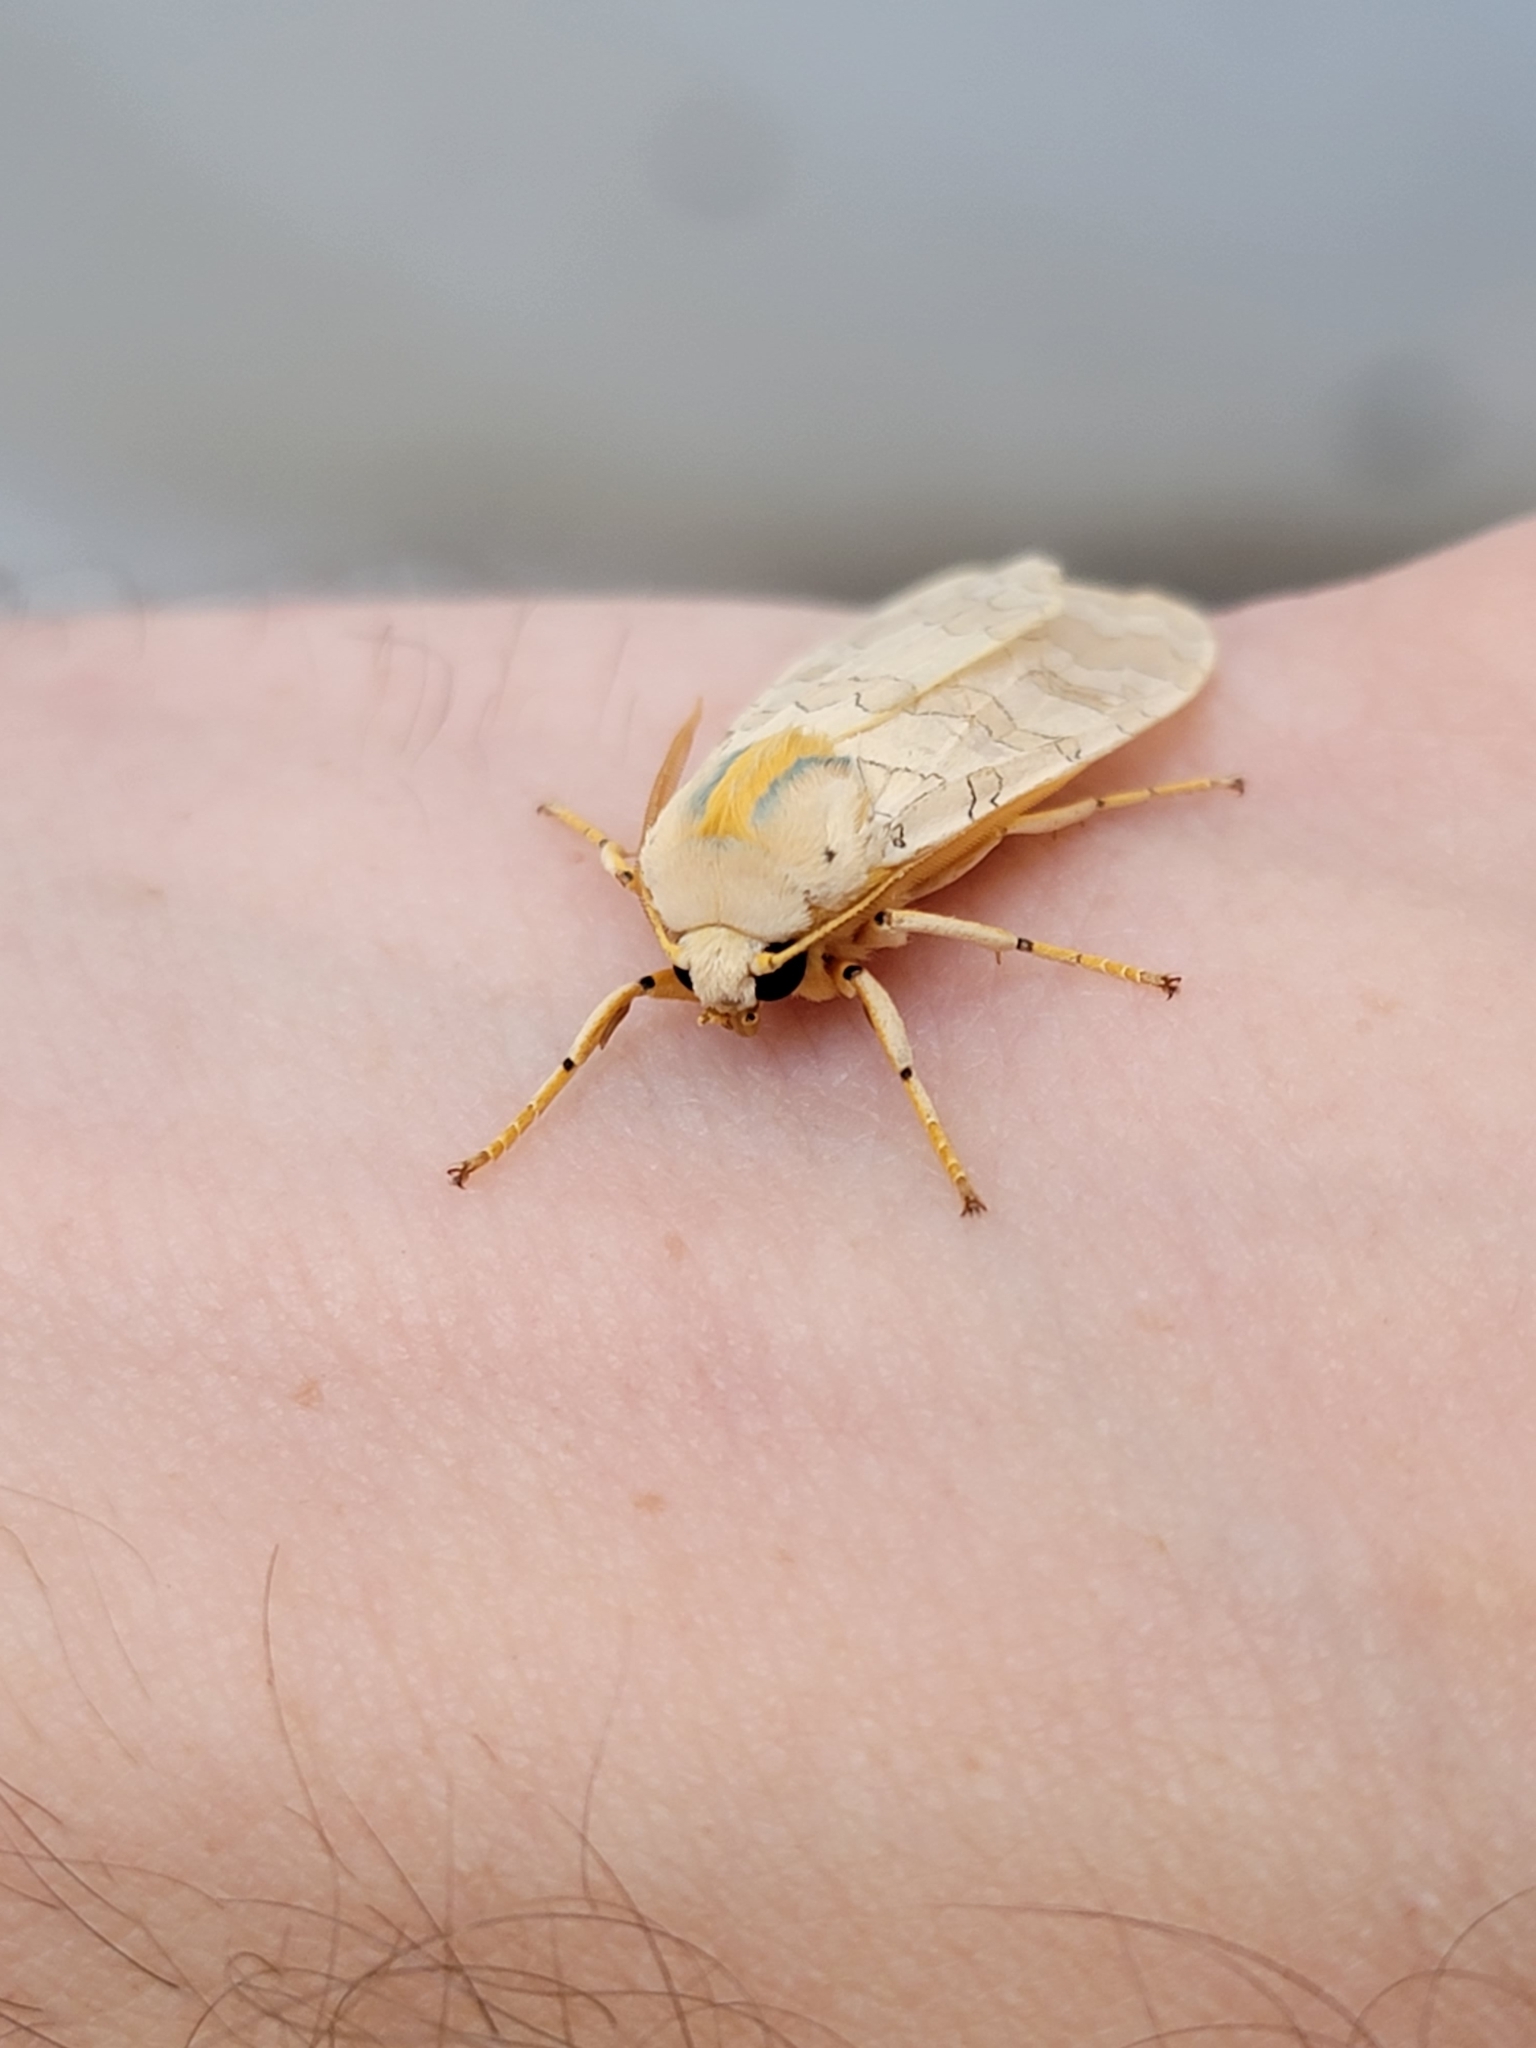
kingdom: Animalia
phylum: Arthropoda
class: Insecta
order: Lepidoptera
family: Erebidae
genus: Halysidota
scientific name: Halysidota tessellaris
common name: Banded tussock moth
